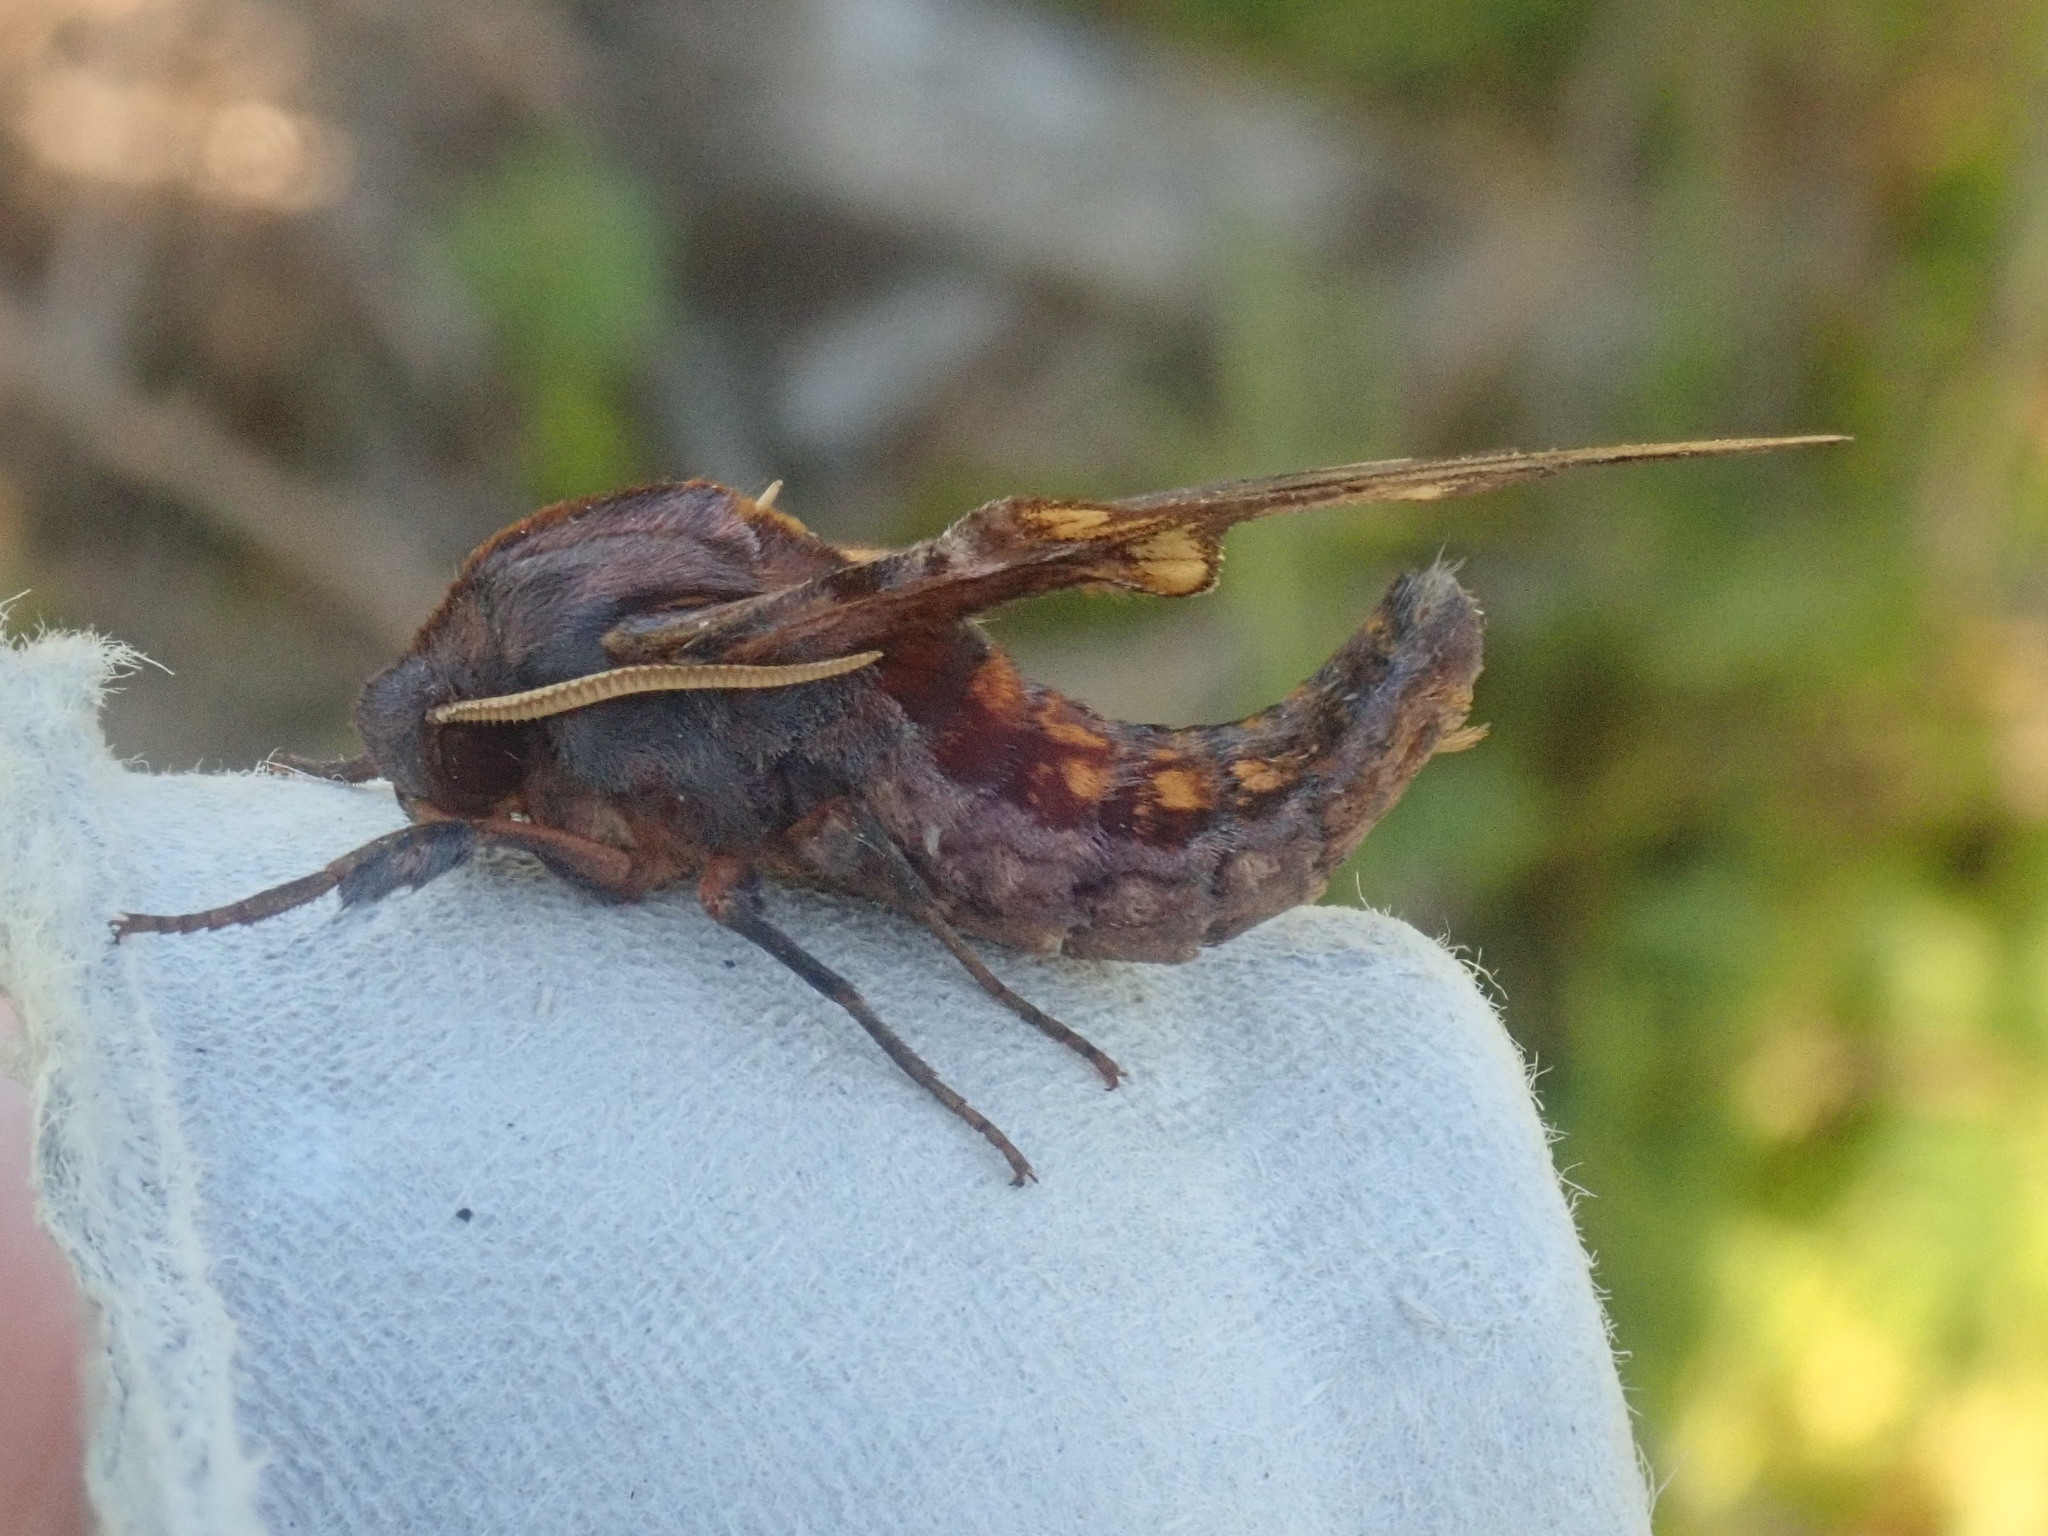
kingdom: Animalia
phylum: Arthropoda
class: Insecta
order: Lepidoptera
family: Sphingidae
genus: Paonias
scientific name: Paonias myops
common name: Small-eyed sphinx
